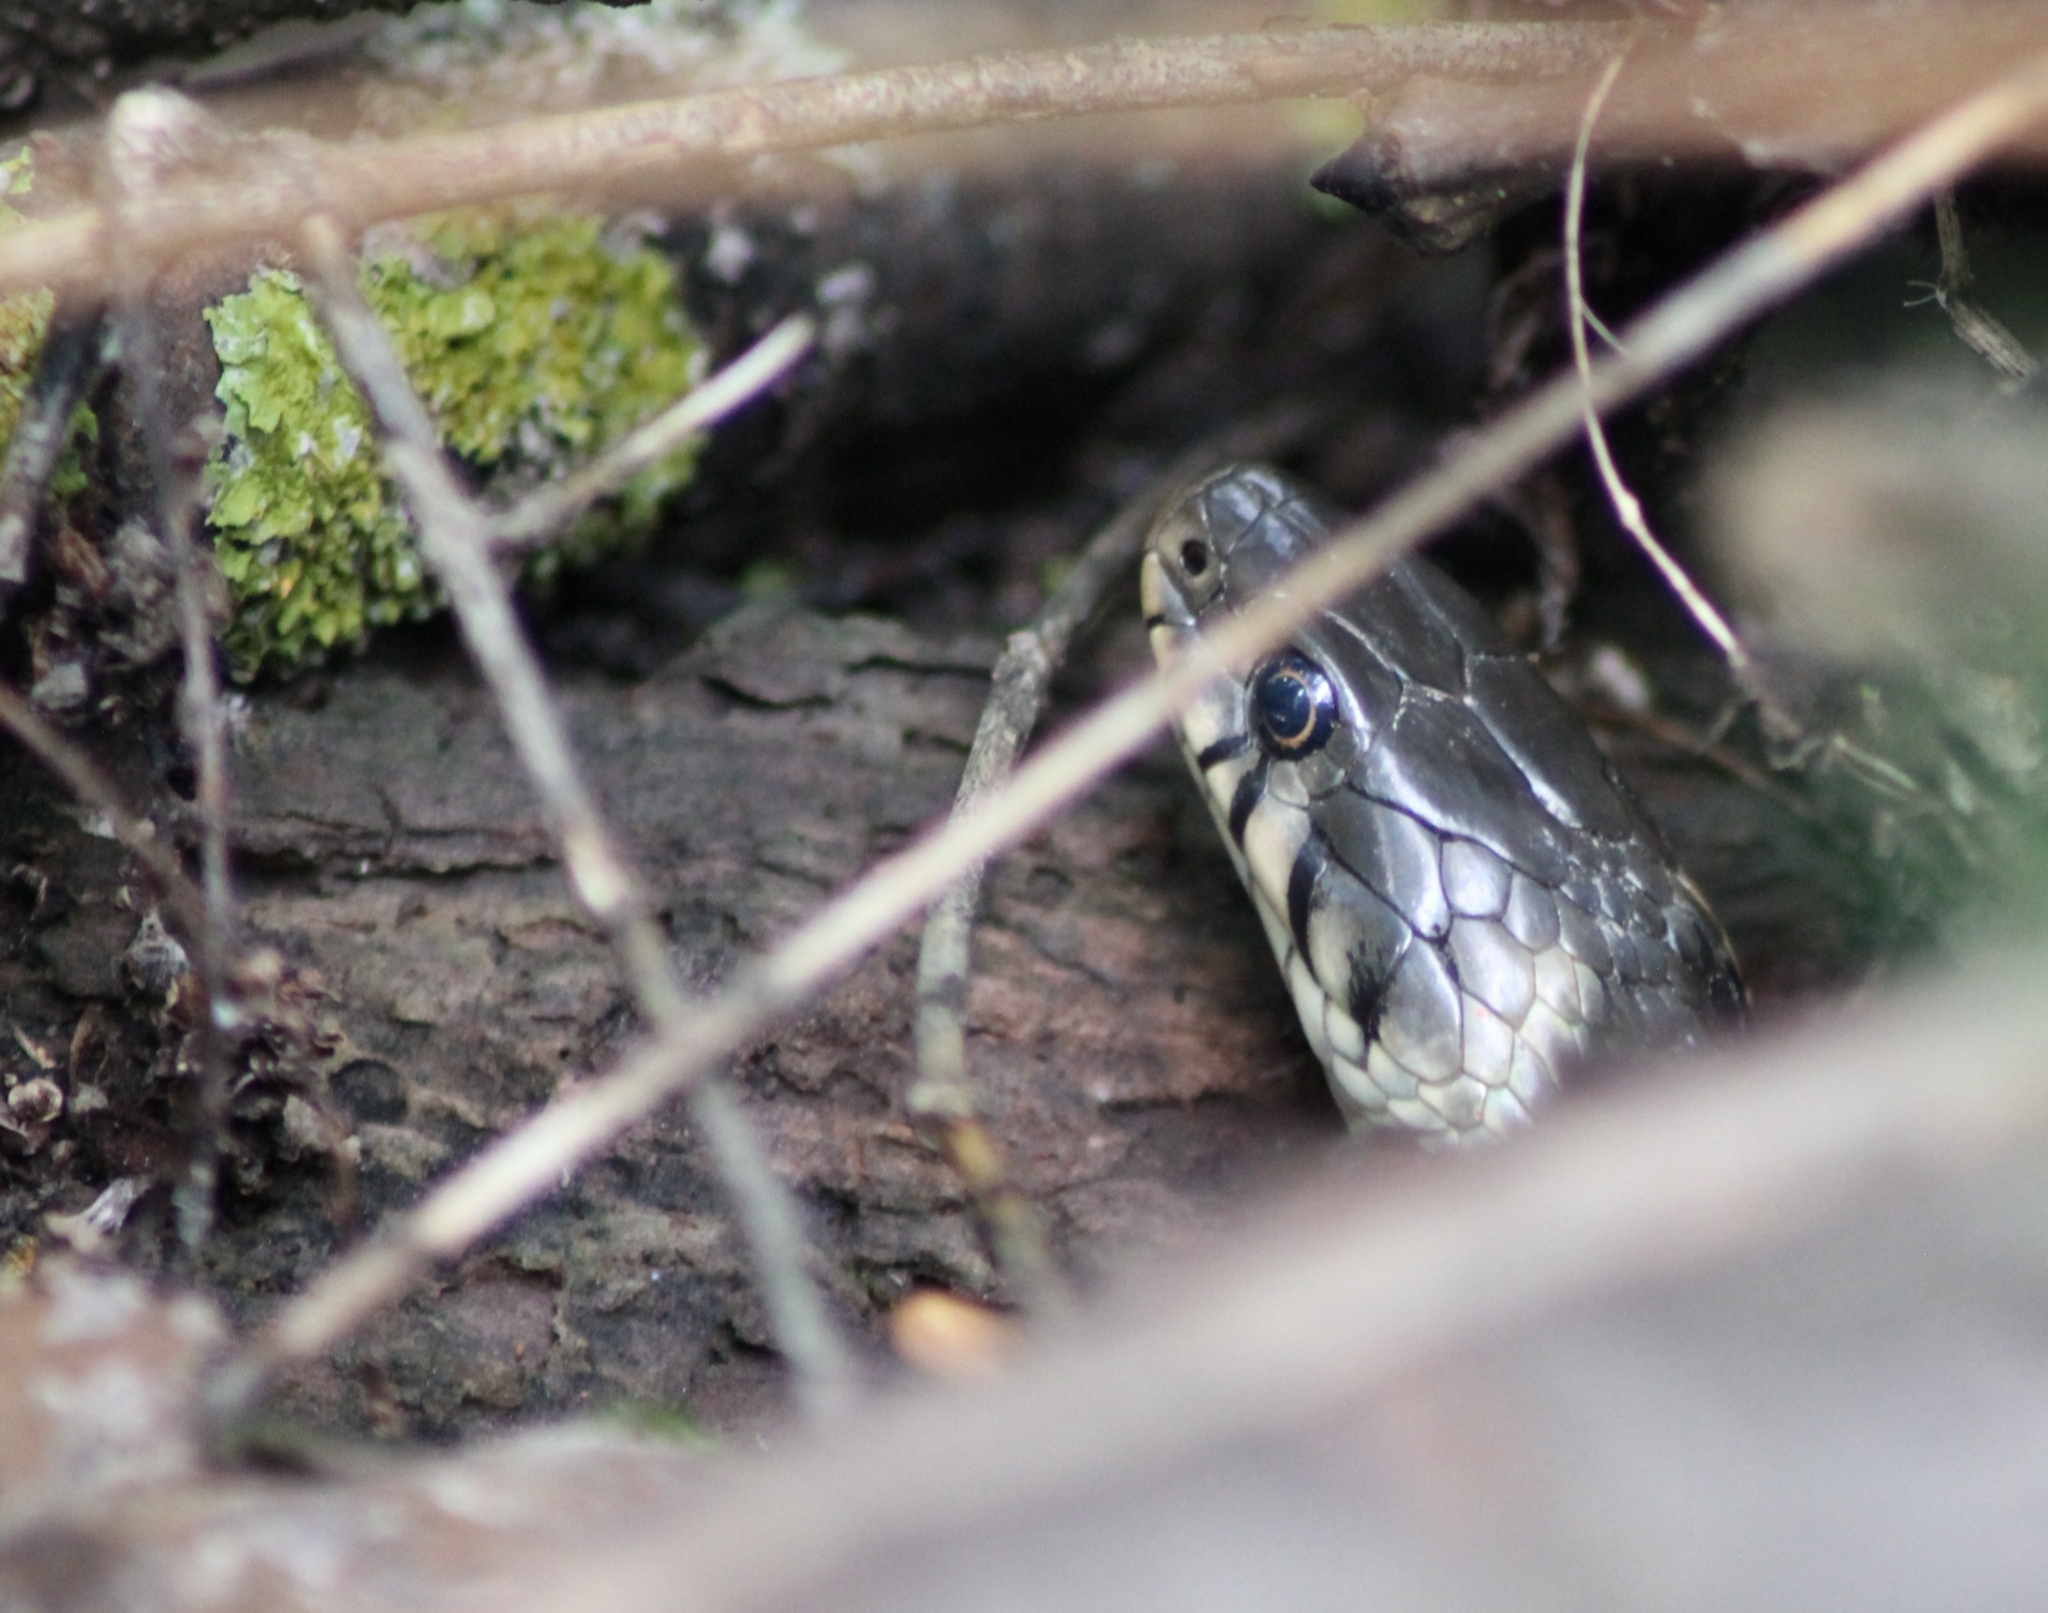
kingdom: Animalia
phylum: Chordata
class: Squamata
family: Colubridae
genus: Natrix
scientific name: Natrix natrix
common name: Grass snake
